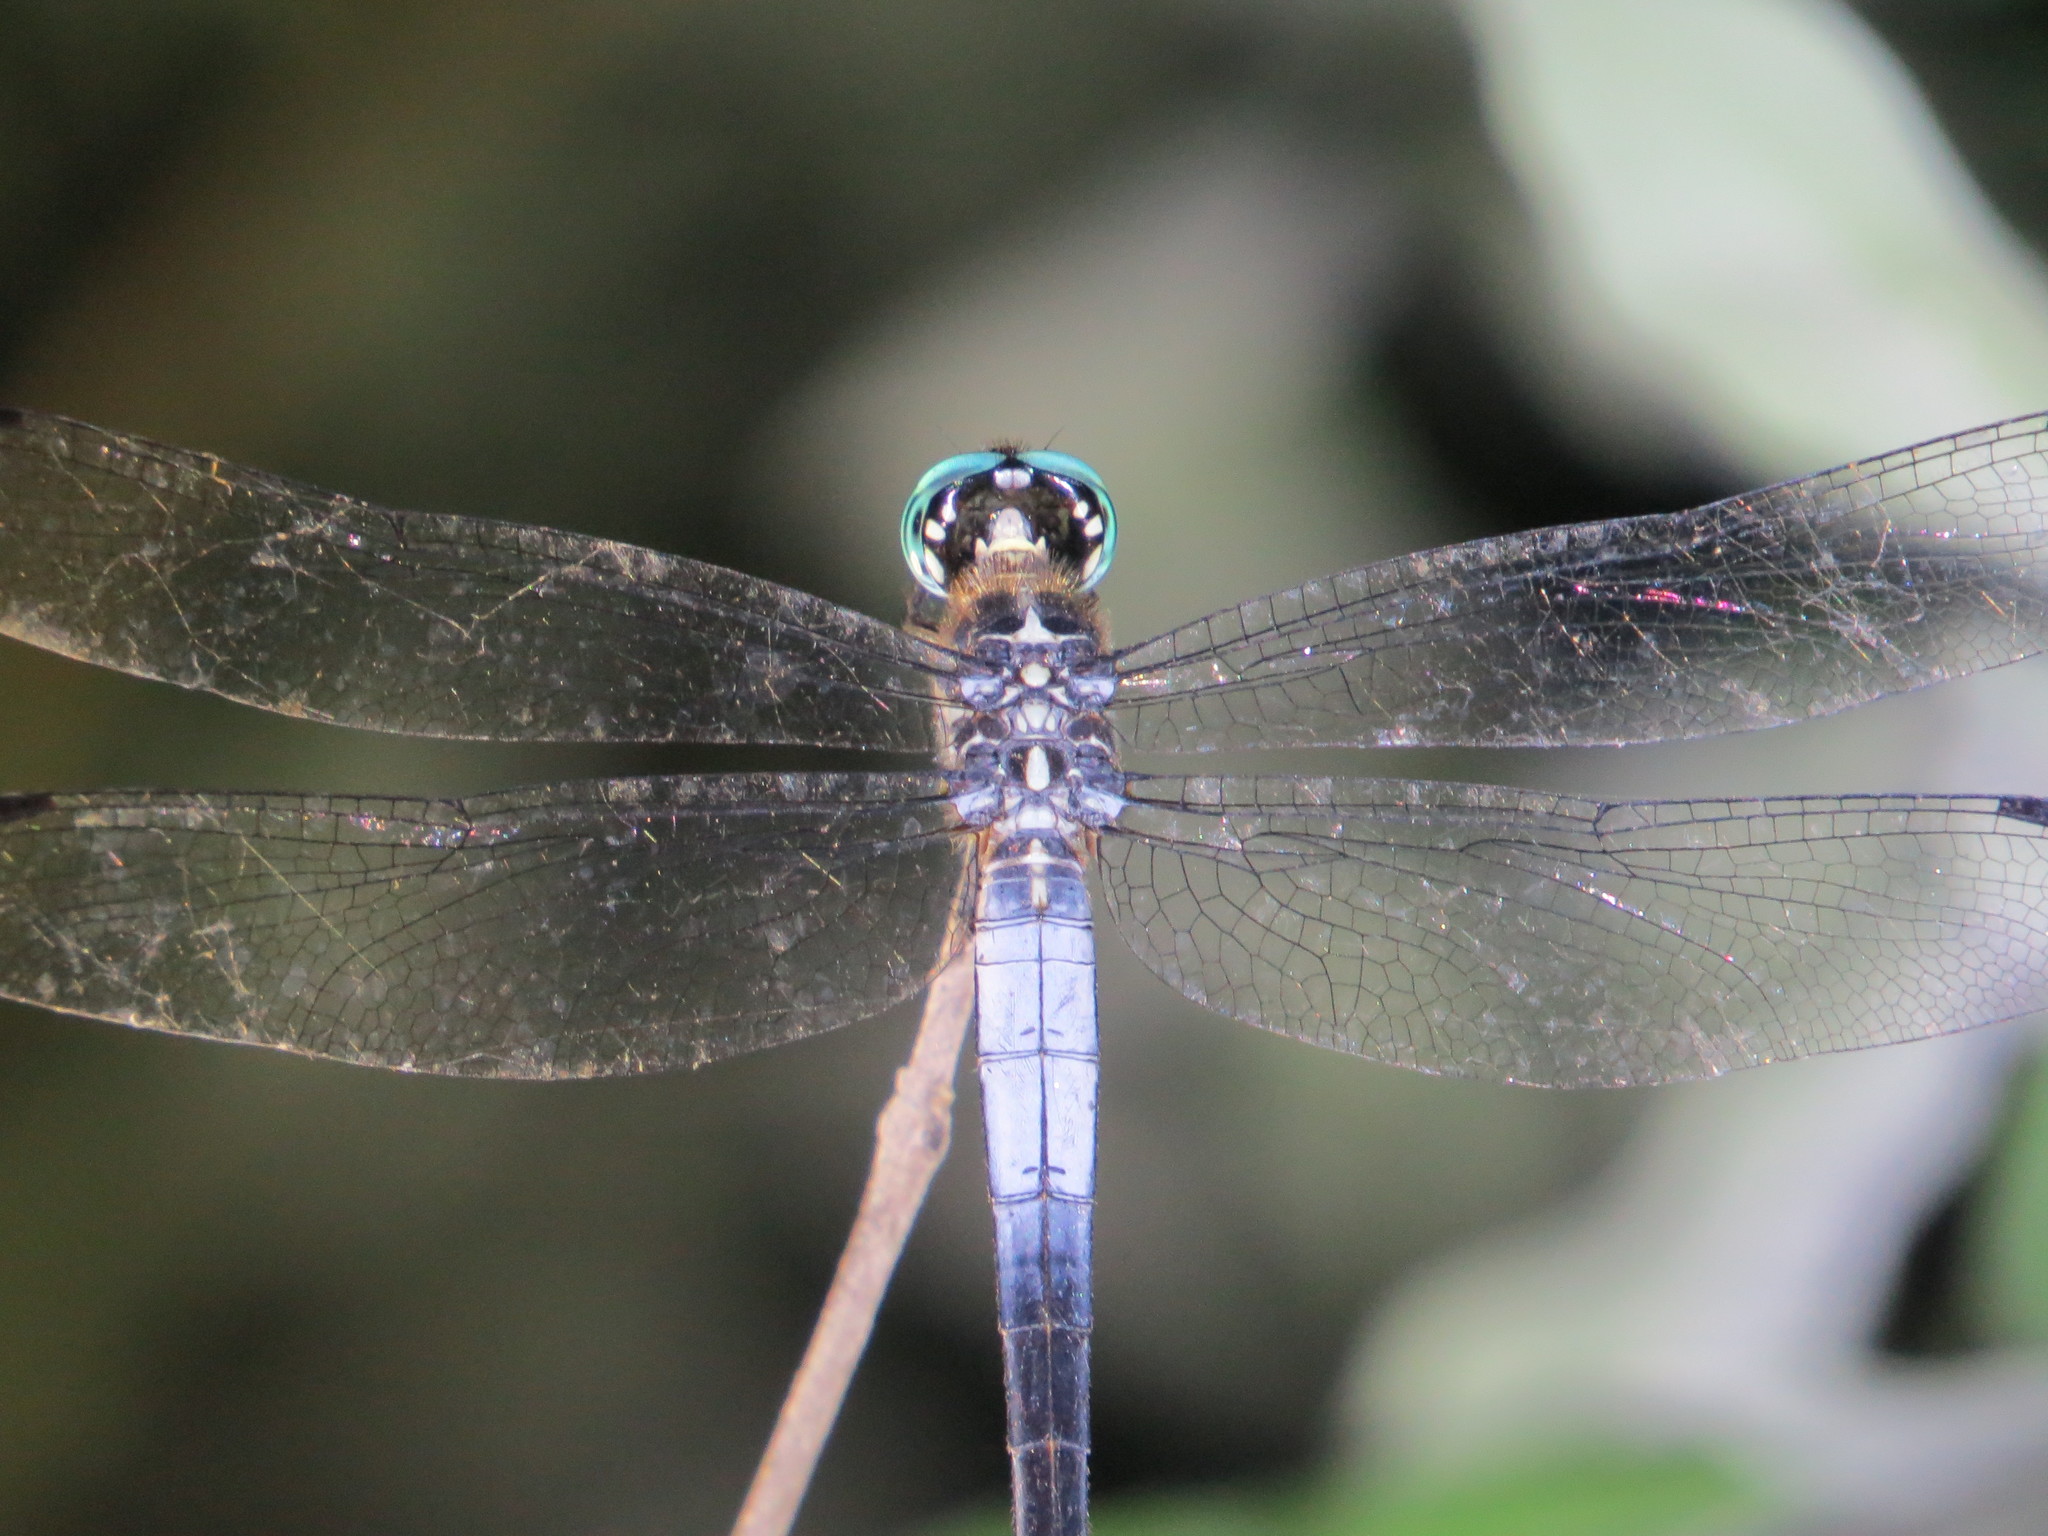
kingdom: Animalia
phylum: Arthropoda
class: Insecta
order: Odonata
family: Libellulidae
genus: Cannaphila
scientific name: Cannaphila insularis
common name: Gray-waisted skimmer
